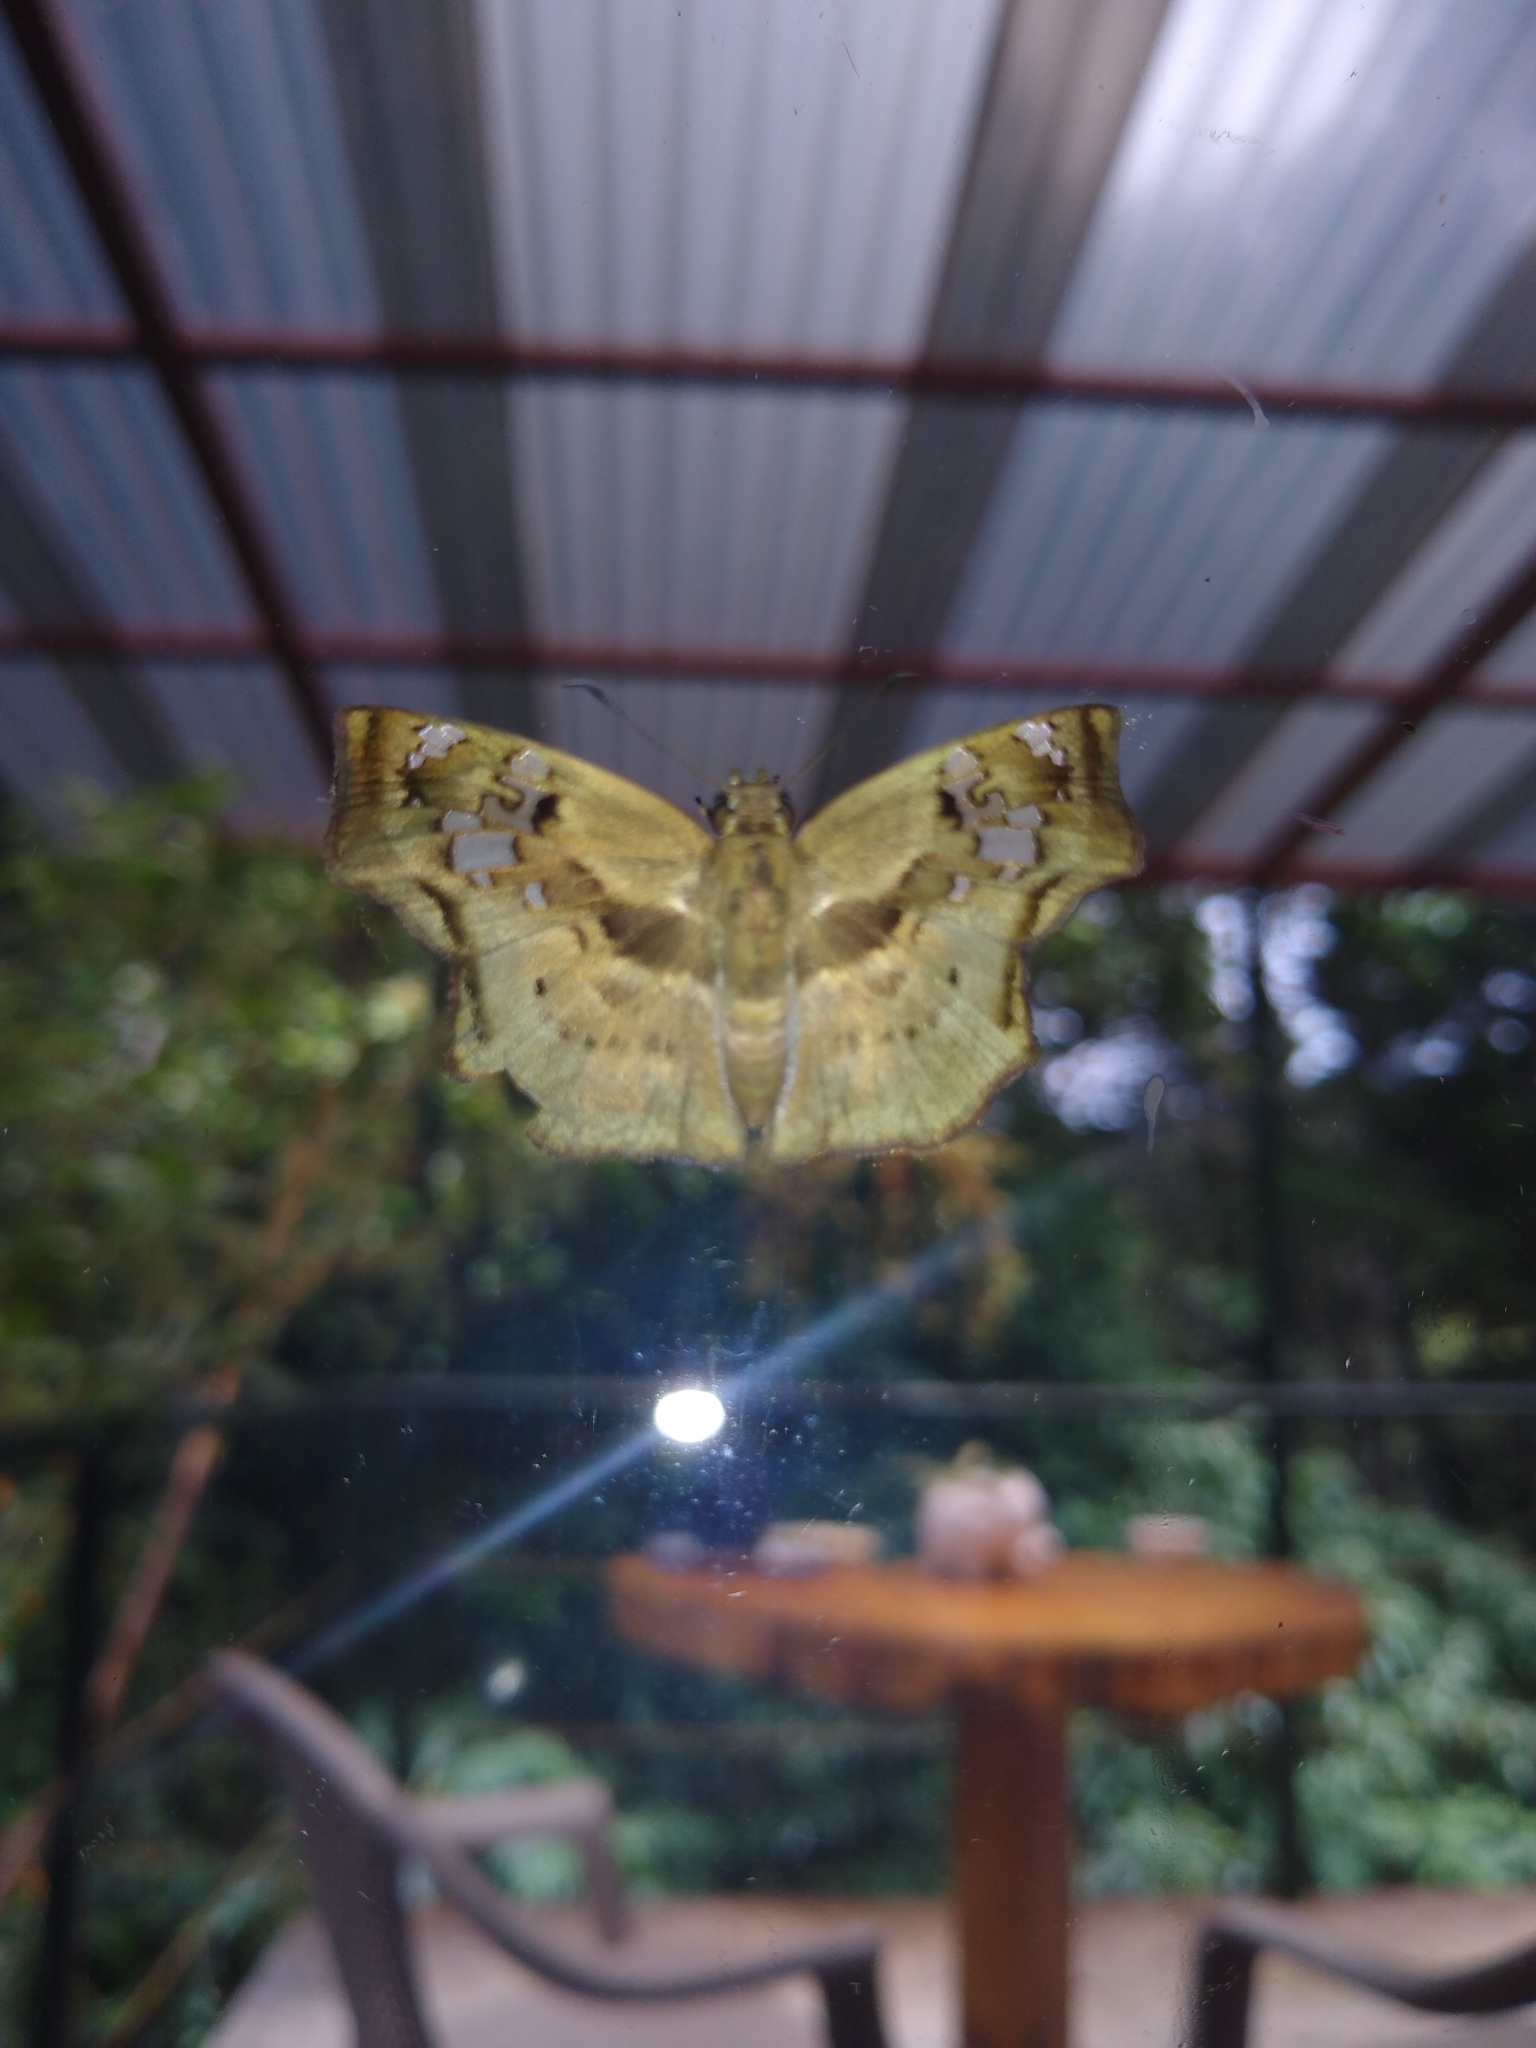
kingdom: Animalia
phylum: Arthropoda
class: Insecta
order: Lepidoptera
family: Hesperiidae
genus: Quadrus
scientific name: Quadrus lugubris
